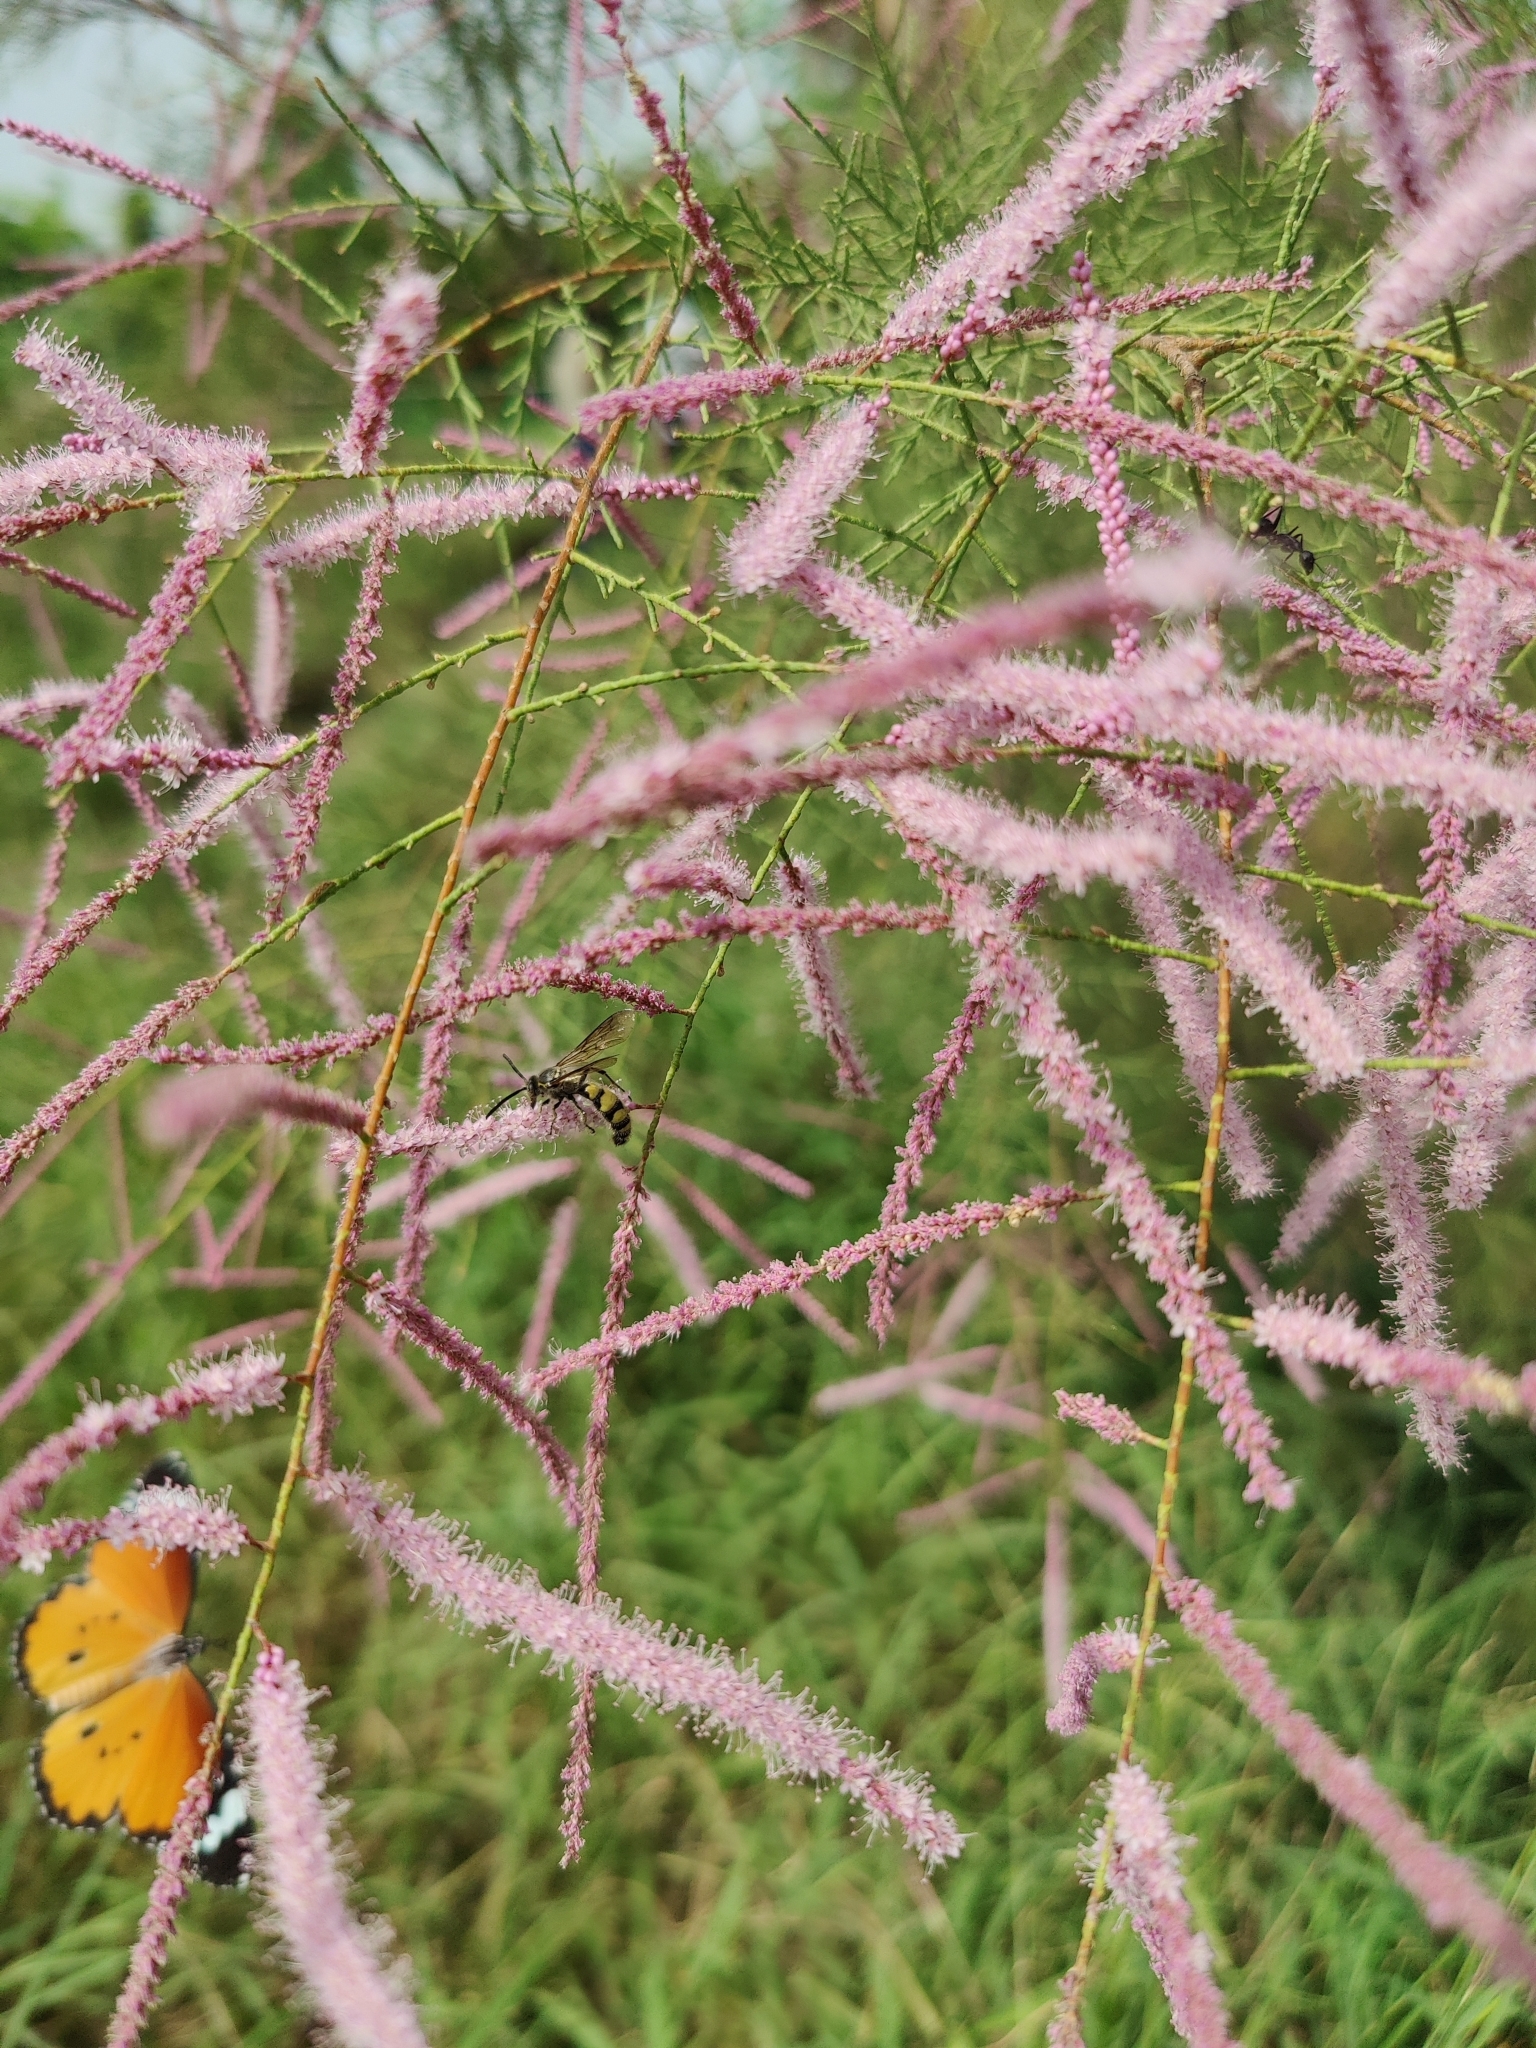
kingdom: Animalia
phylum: Arthropoda
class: Insecta
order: Lepidoptera
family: Nymphalidae
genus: Danaus
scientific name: Danaus chrysippus
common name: Plain tiger
